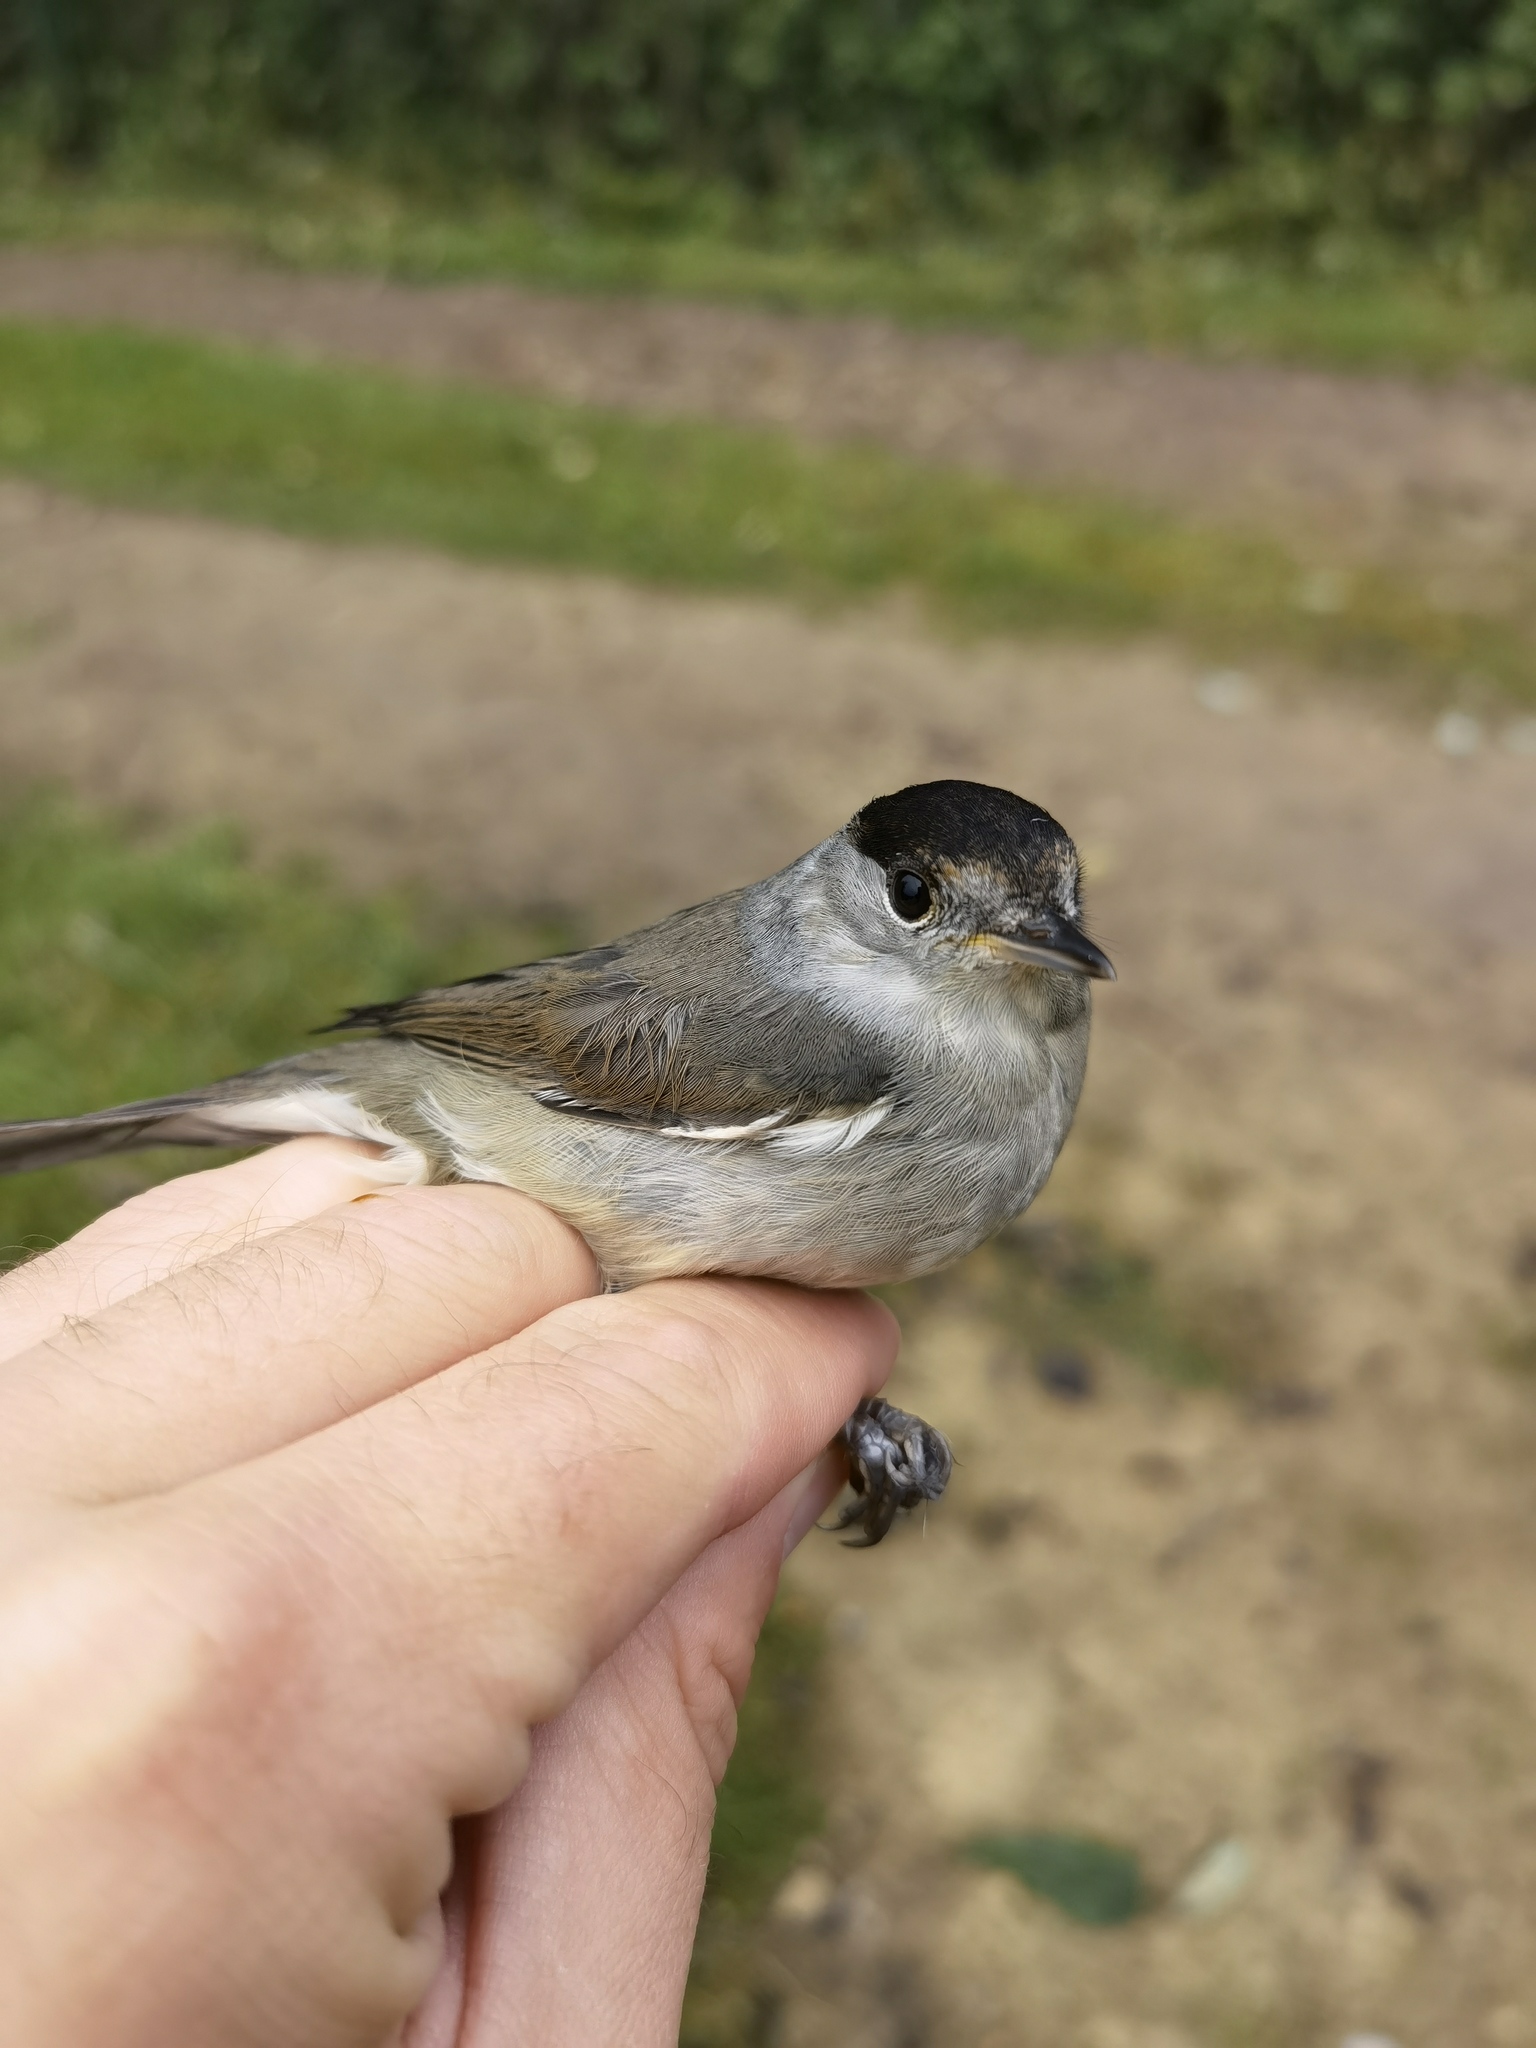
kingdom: Animalia
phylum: Chordata
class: Aves
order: Passeriformes
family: Sylviidae
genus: Sylvia
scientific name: Sylvia atricapilla
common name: Eurasian blackcap
